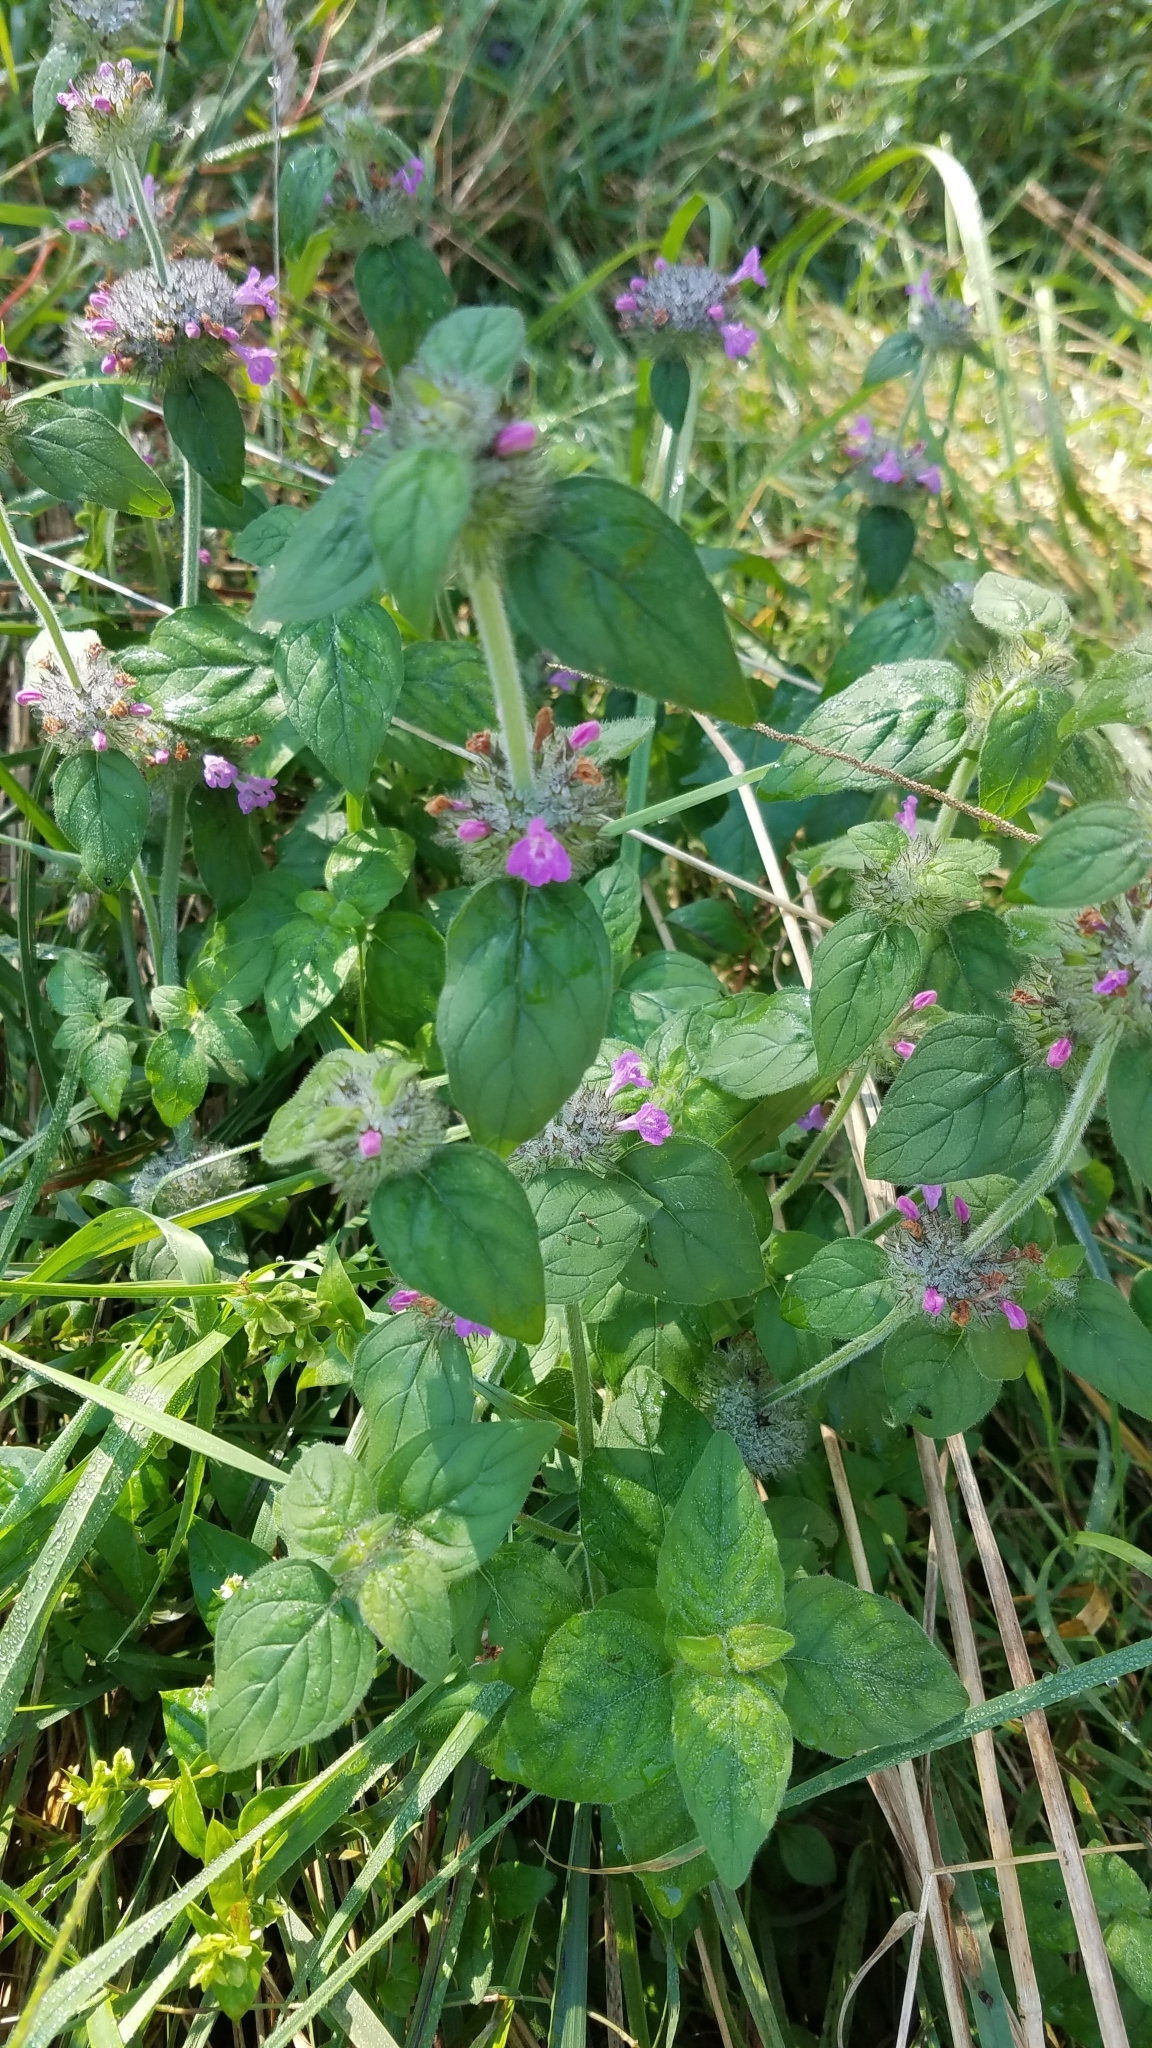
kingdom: Plantae
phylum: Tracheophyta
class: Magnoliopsida
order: Lamiales
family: Lamiaceae
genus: Clinopodium
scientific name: Clinopodium vulgare
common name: Wild basil
